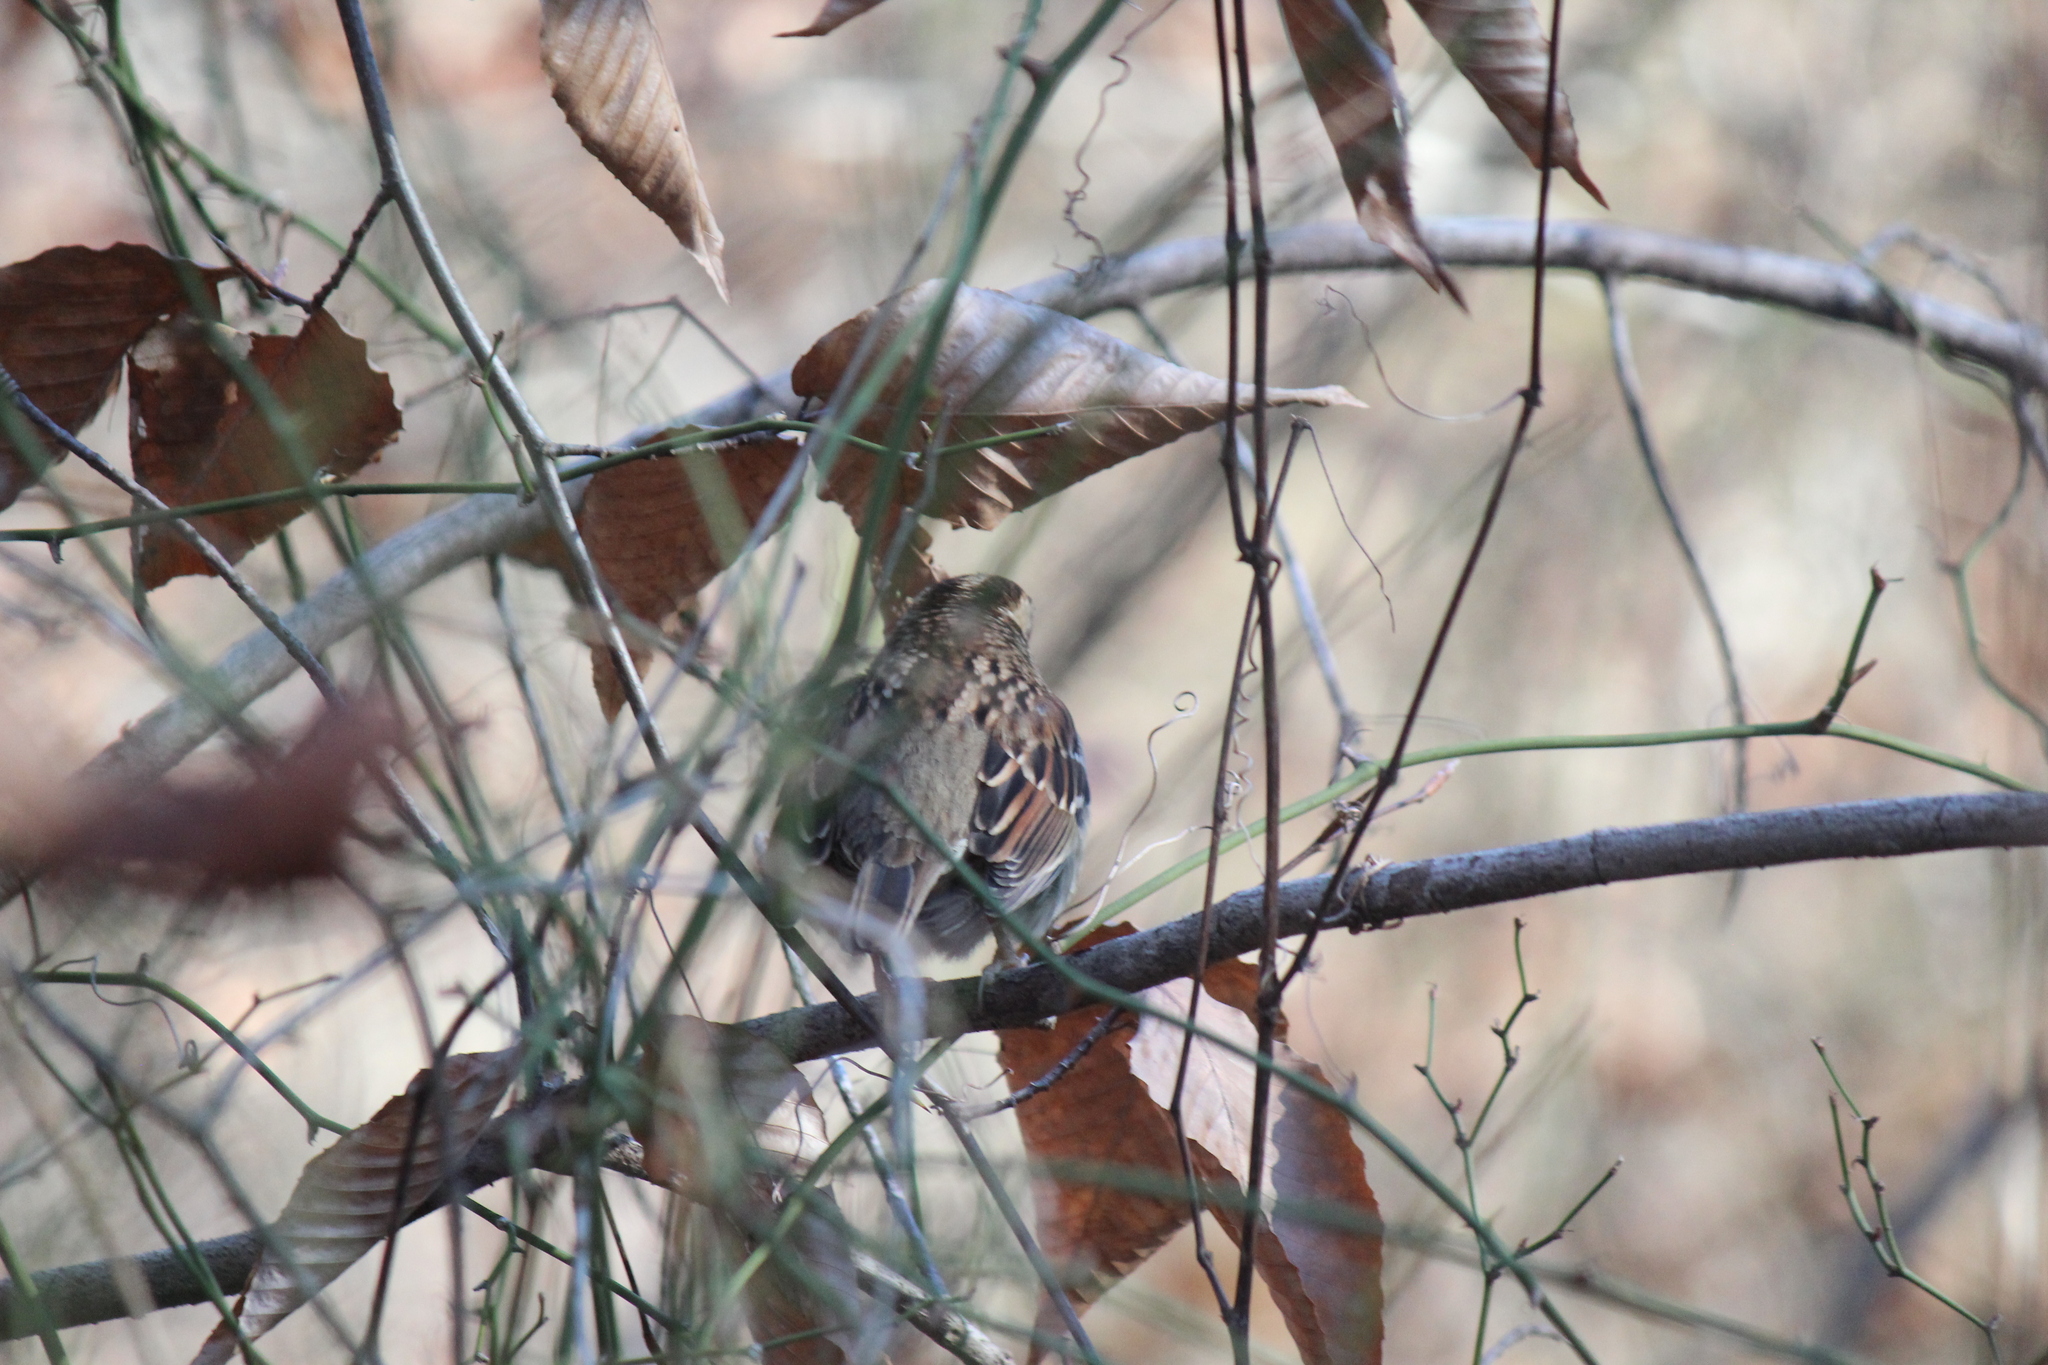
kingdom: Animalia
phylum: Chordata
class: Aves
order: Passeriformes
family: Passerellidae
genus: Zonotrichia
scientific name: Zonotrichia albicollis
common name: White-throated sparrow
